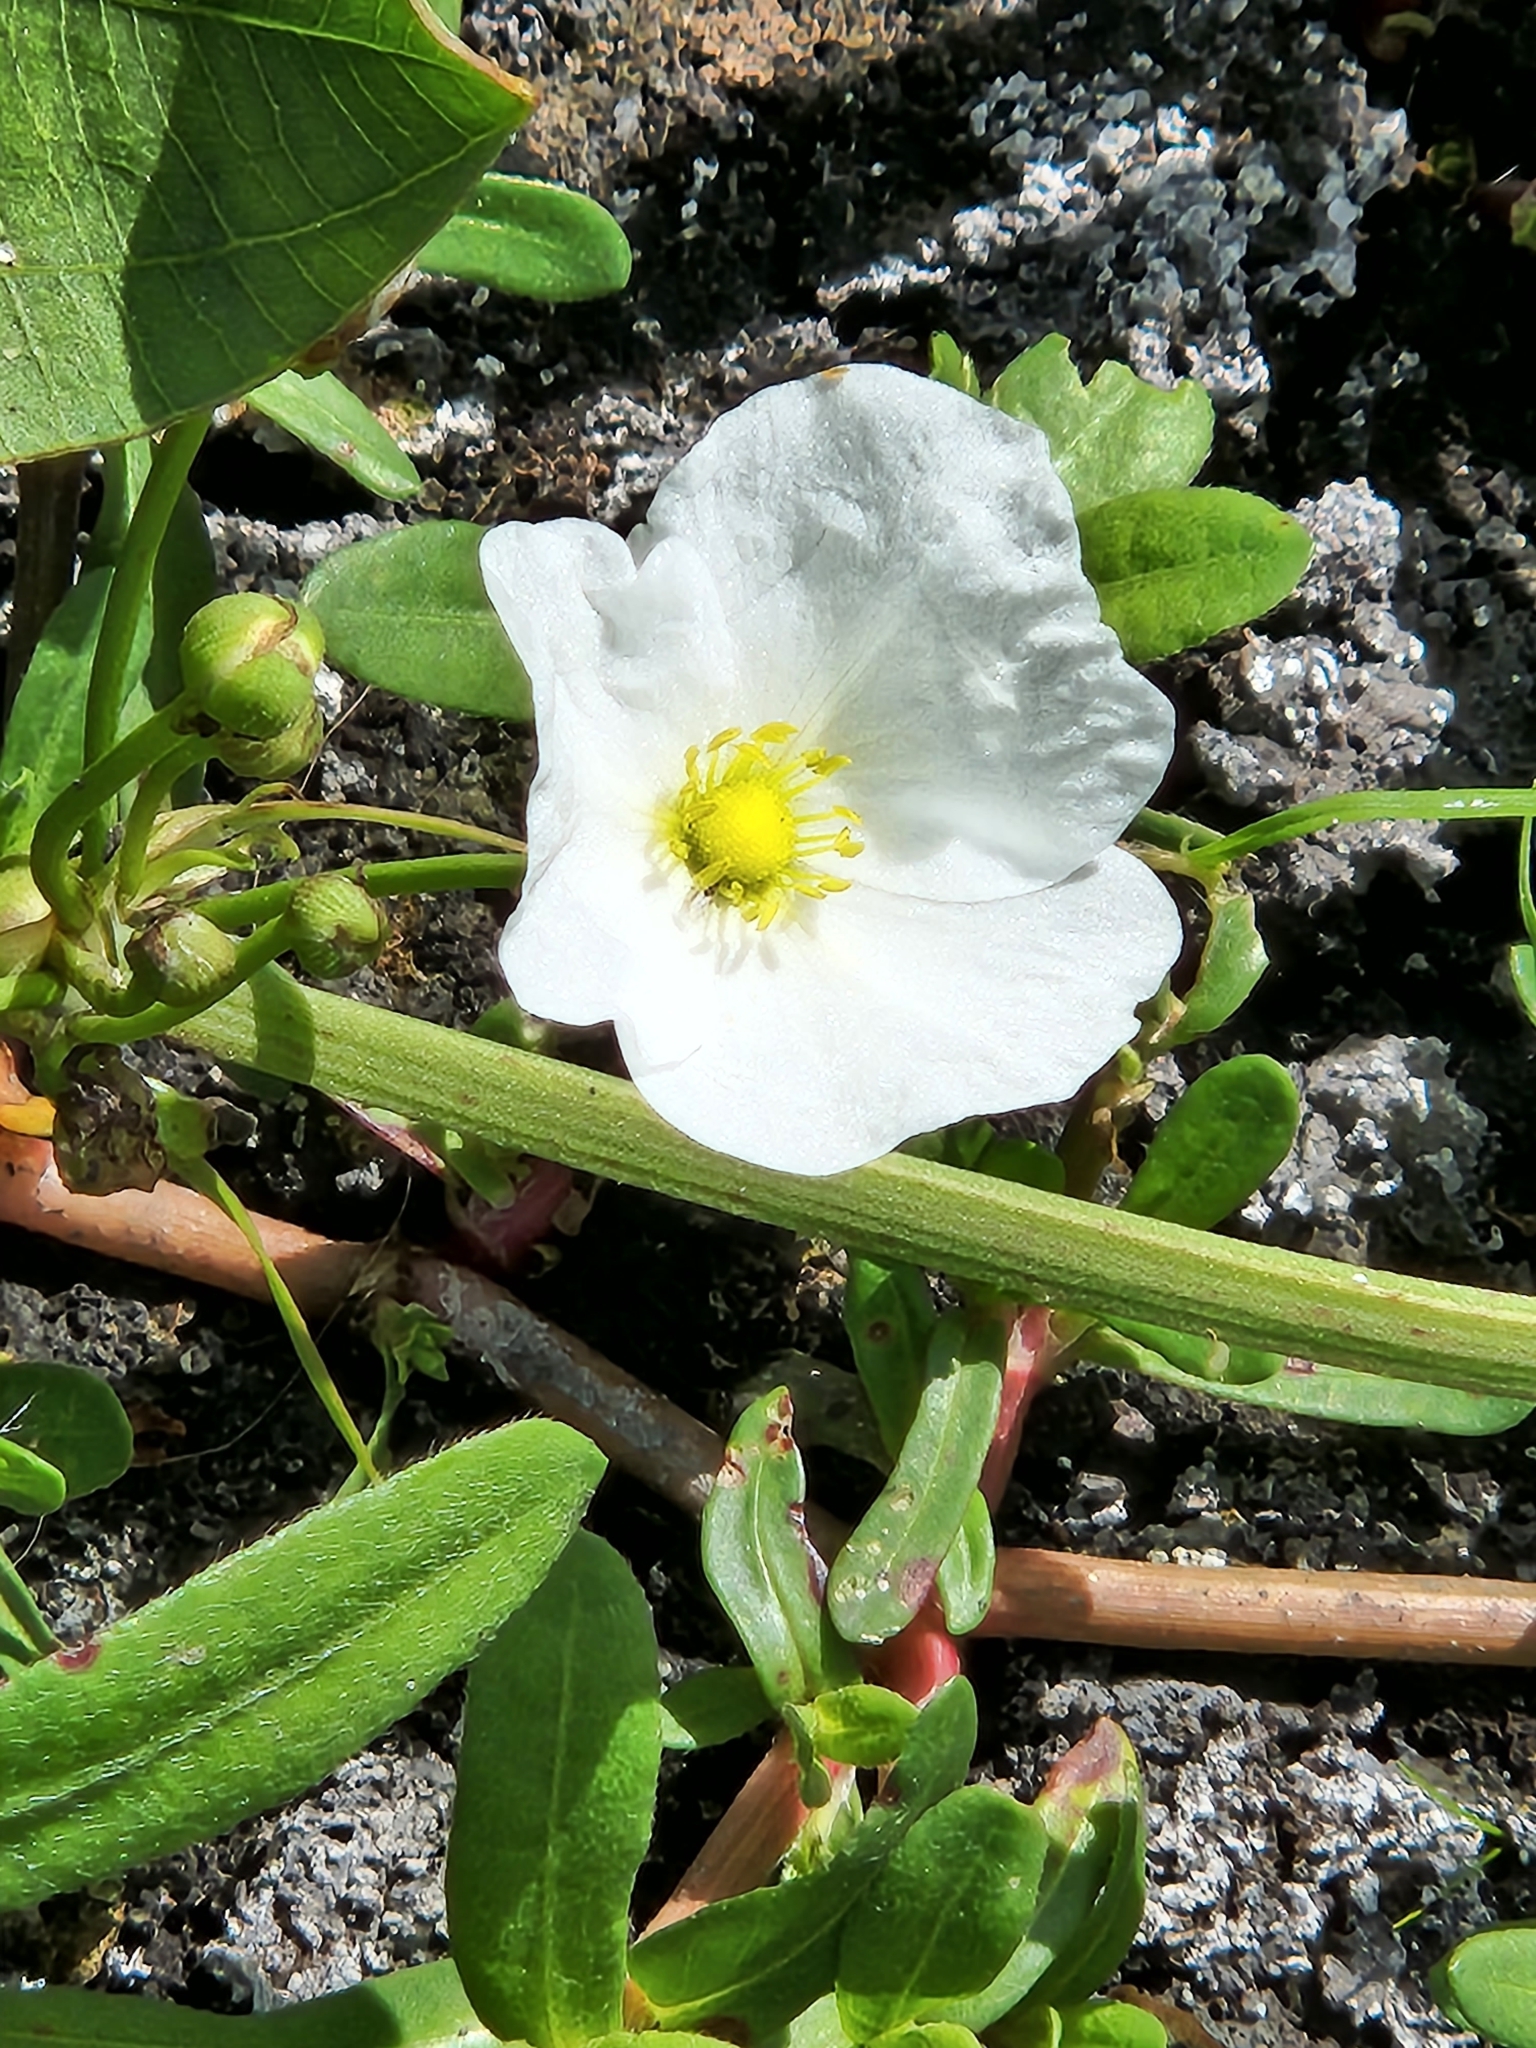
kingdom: Plantae
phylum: Tracheophyta
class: Liliopsida
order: Alismatales
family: Alismataceae
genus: Aquarius
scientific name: Aquarius cordifolius
